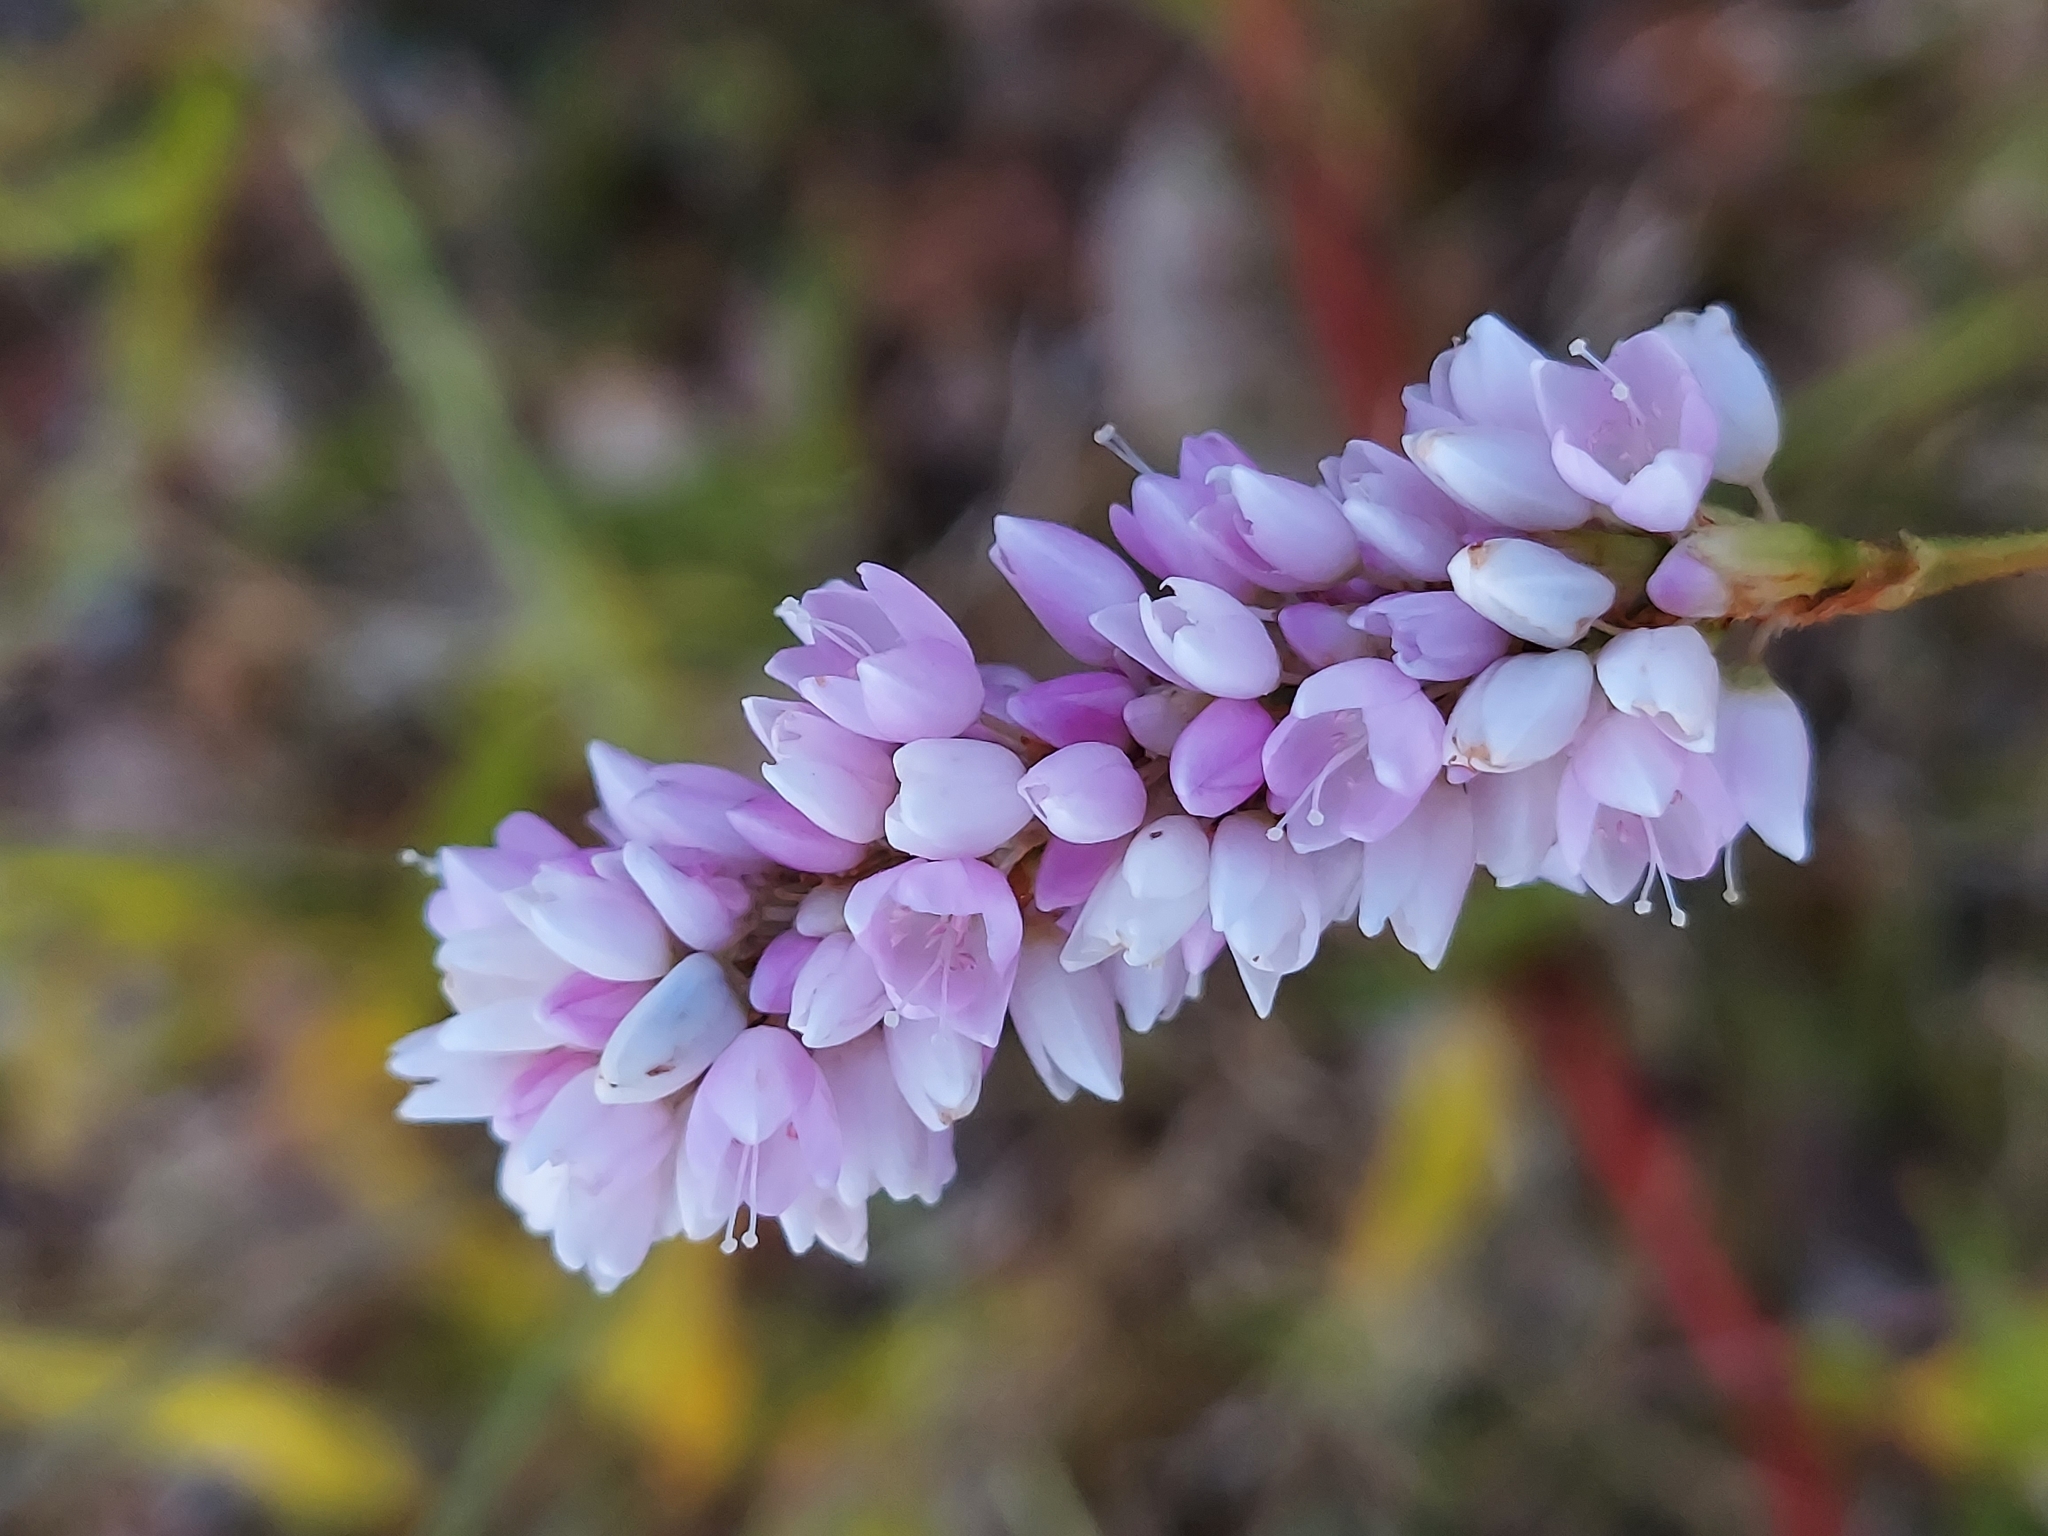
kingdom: Plantae
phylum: Tracheophyta
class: Magnoliopsida
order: Caryophyllales
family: Polygonaceae
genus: Persicaria
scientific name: Persicaria bicornis
